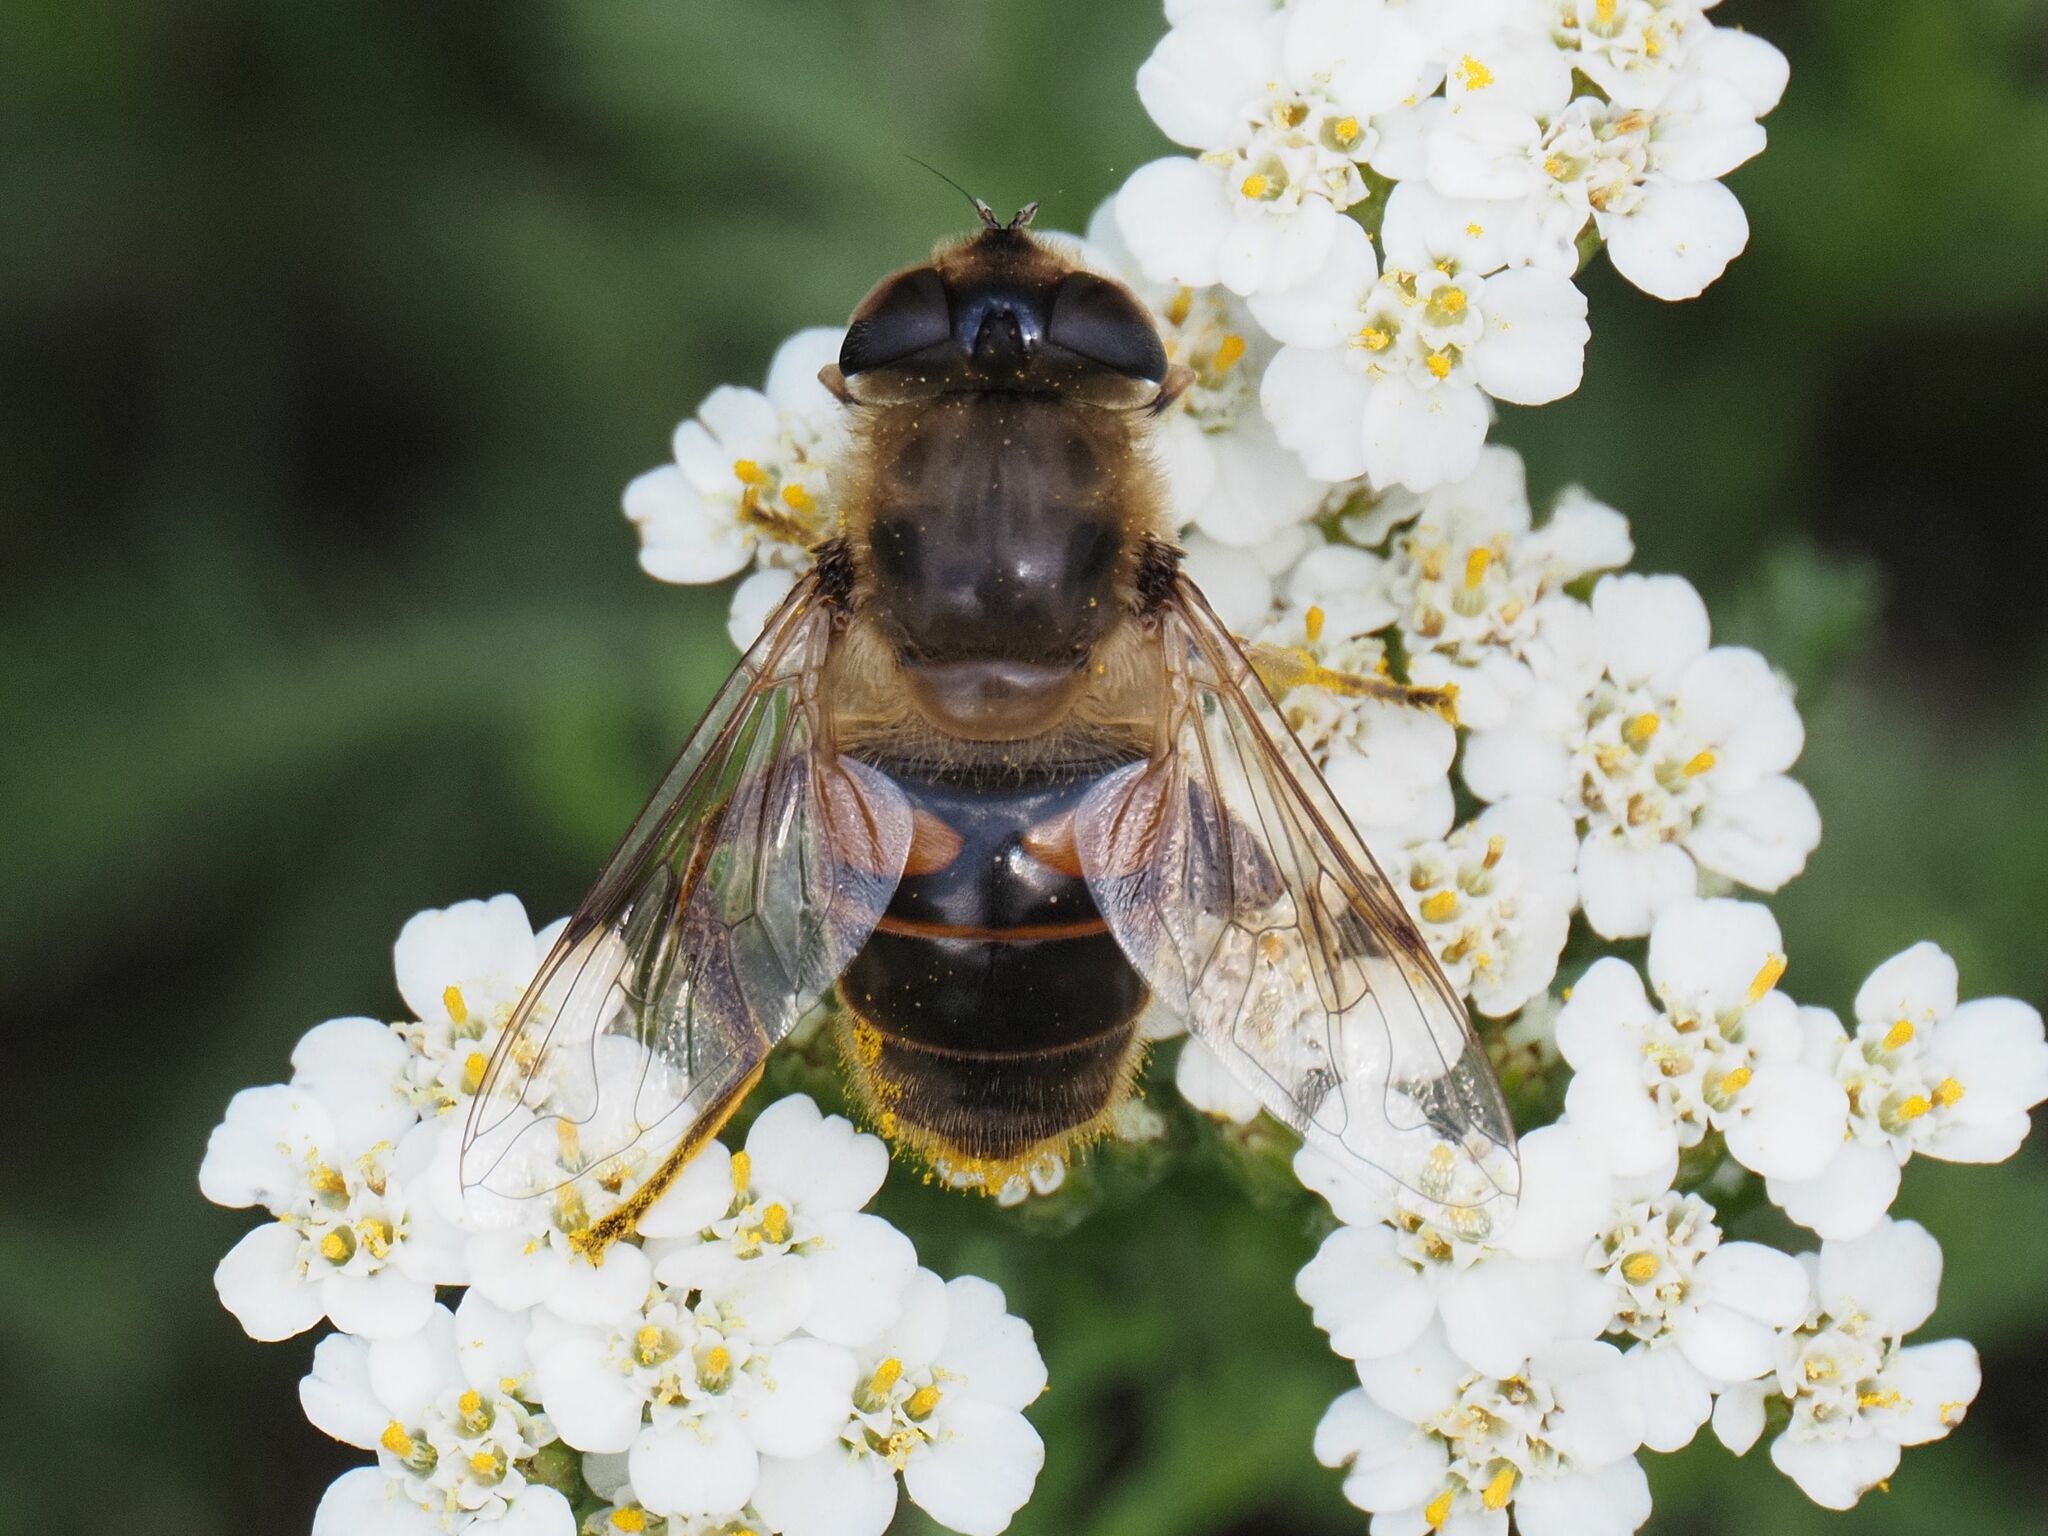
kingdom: Animalia
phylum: Arthropoda
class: Insecta
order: Diptera
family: Syrphidae
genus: Eristalis
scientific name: Eristalis tenax
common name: Drone fly
